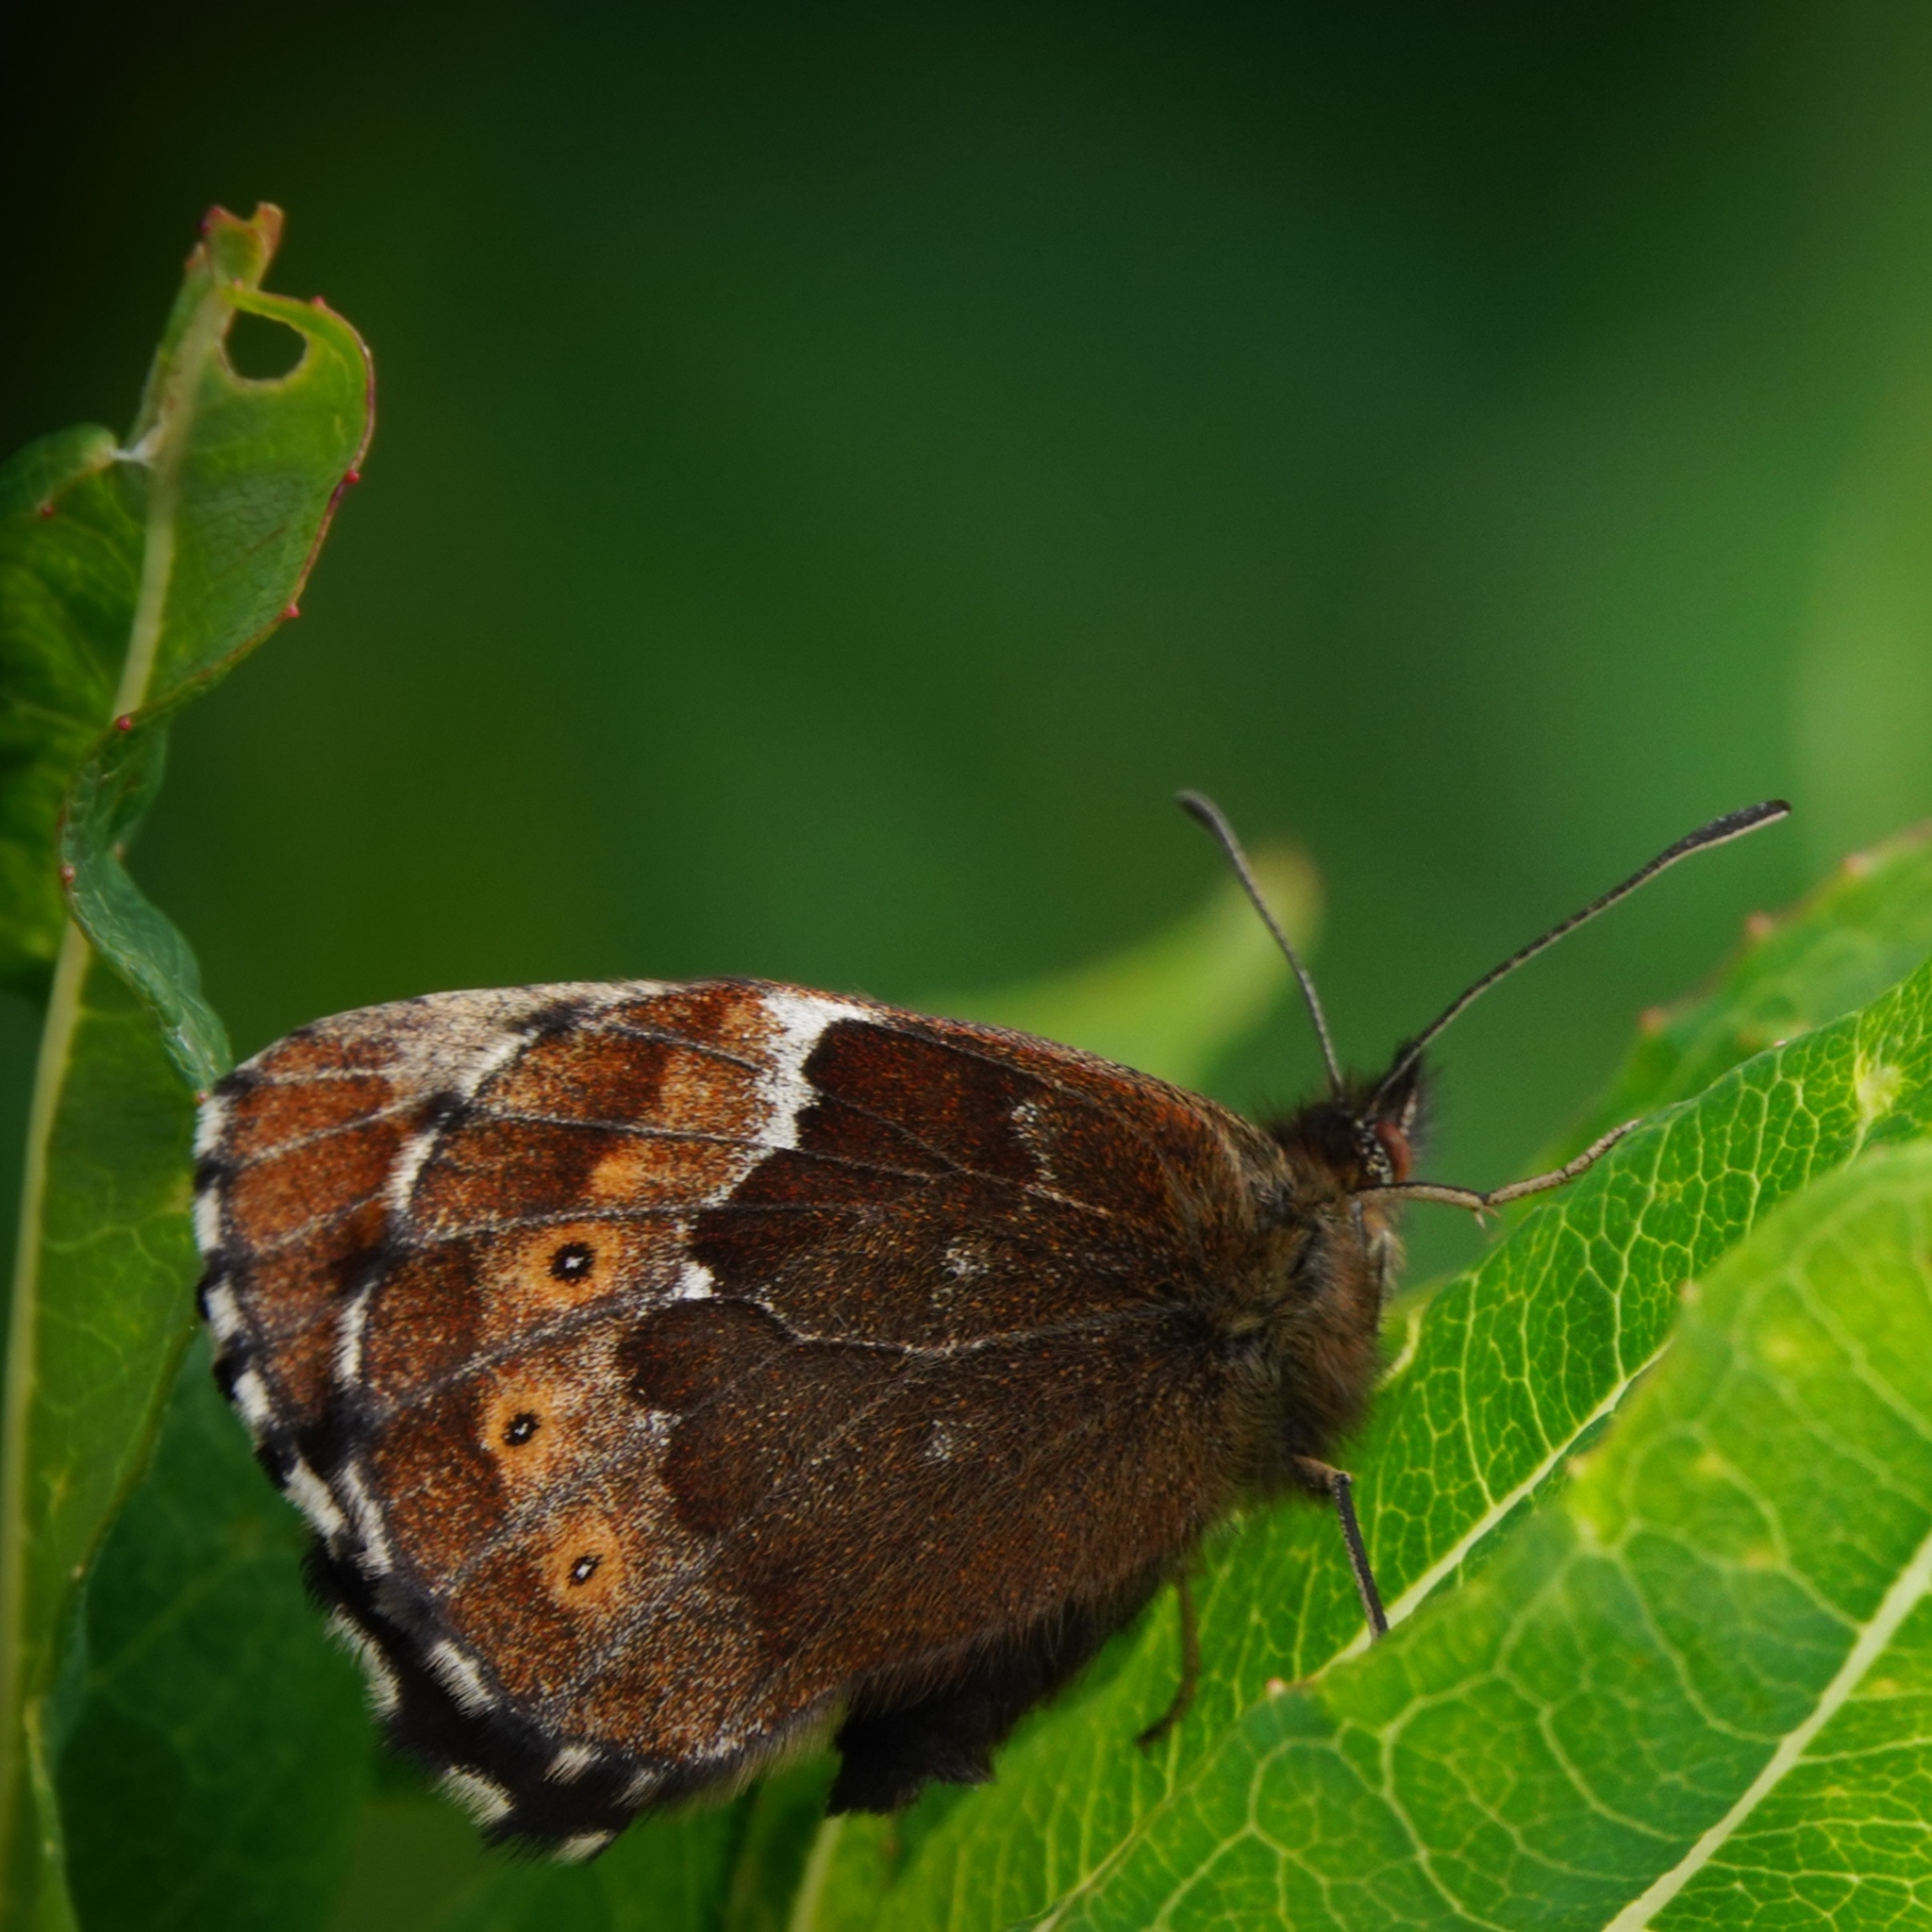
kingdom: Animalia
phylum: Arthropoda
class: Insecta
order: Lepidoptera
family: Nymphalidae
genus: Erebia
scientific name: Erebia ligea
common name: Arran brown
